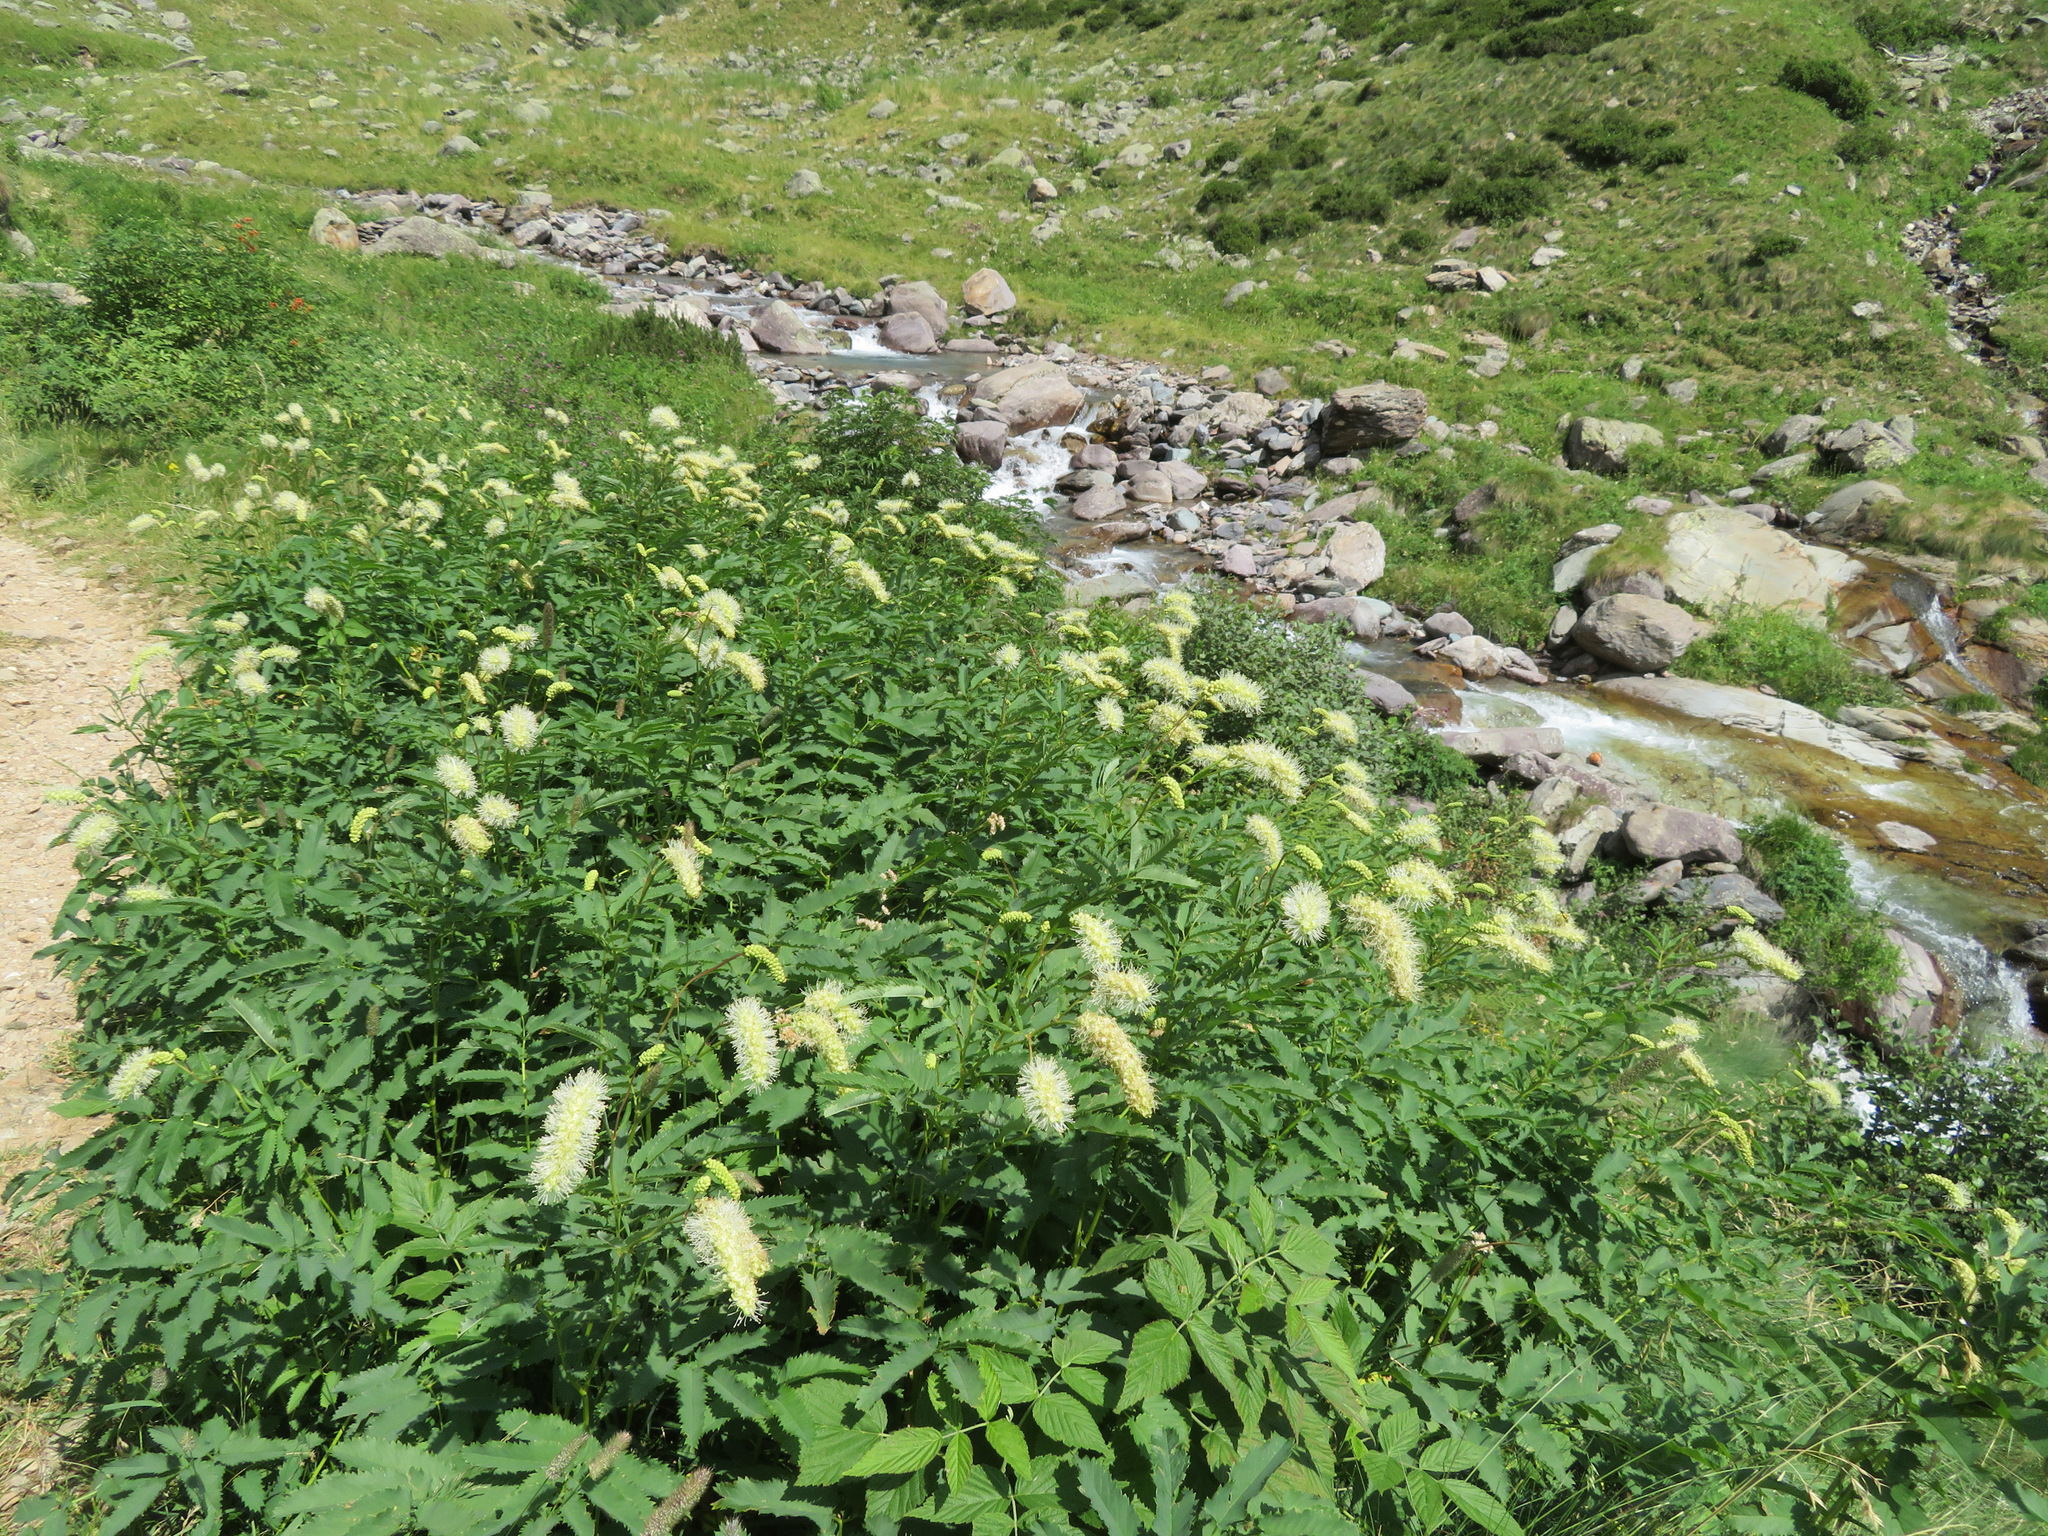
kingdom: Plantae
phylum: Tracheophyta
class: Magnoliopsida
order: Rosales
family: Rosaceae
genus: Poterium
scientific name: Poterium dodecandrum
